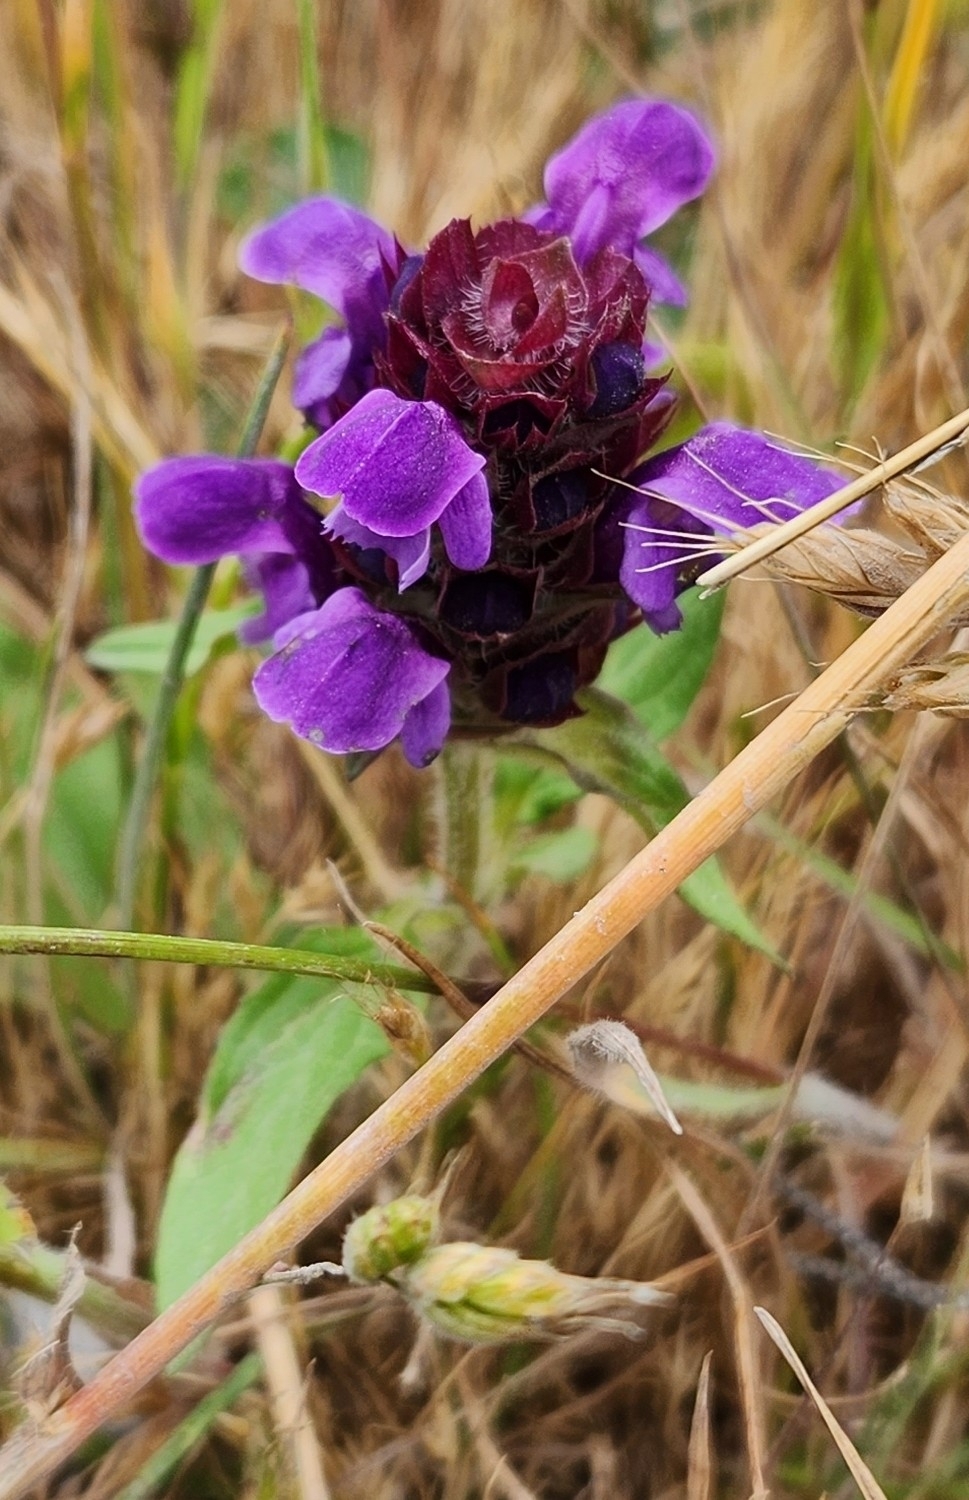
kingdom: Plantae
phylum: Tracheophyta
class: Magnoliopsida
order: Lamiales
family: Lamiaceae
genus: Prunella
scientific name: Prunella vulgaris
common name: Heal-all
